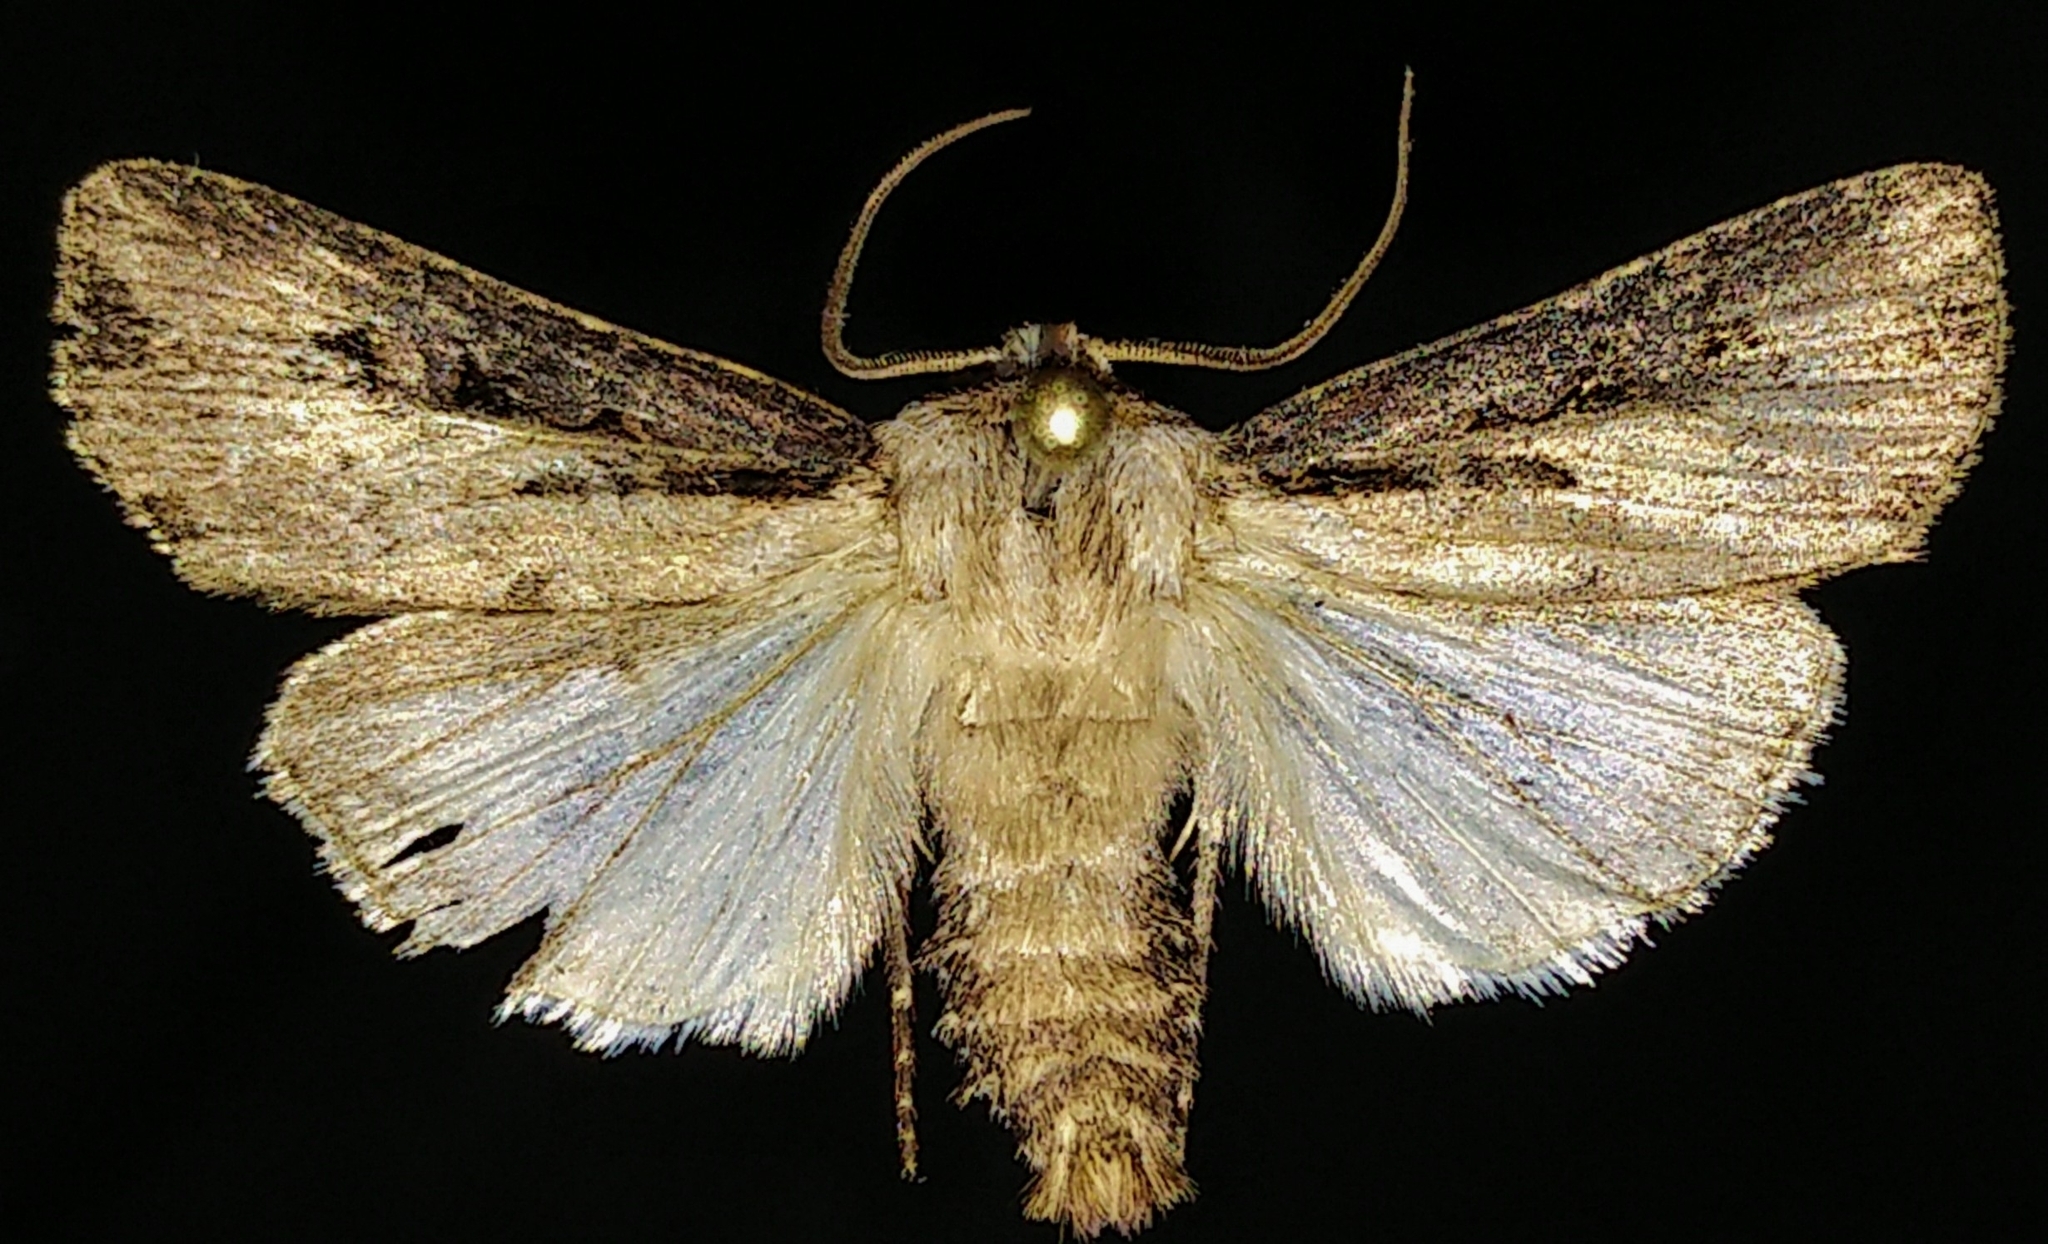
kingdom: Animalia
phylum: Arthropoda
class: Insecta
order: Lepidoptera
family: Noctuidae
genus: Agrotis
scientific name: Agrotis volubilis
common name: Voluble dart
